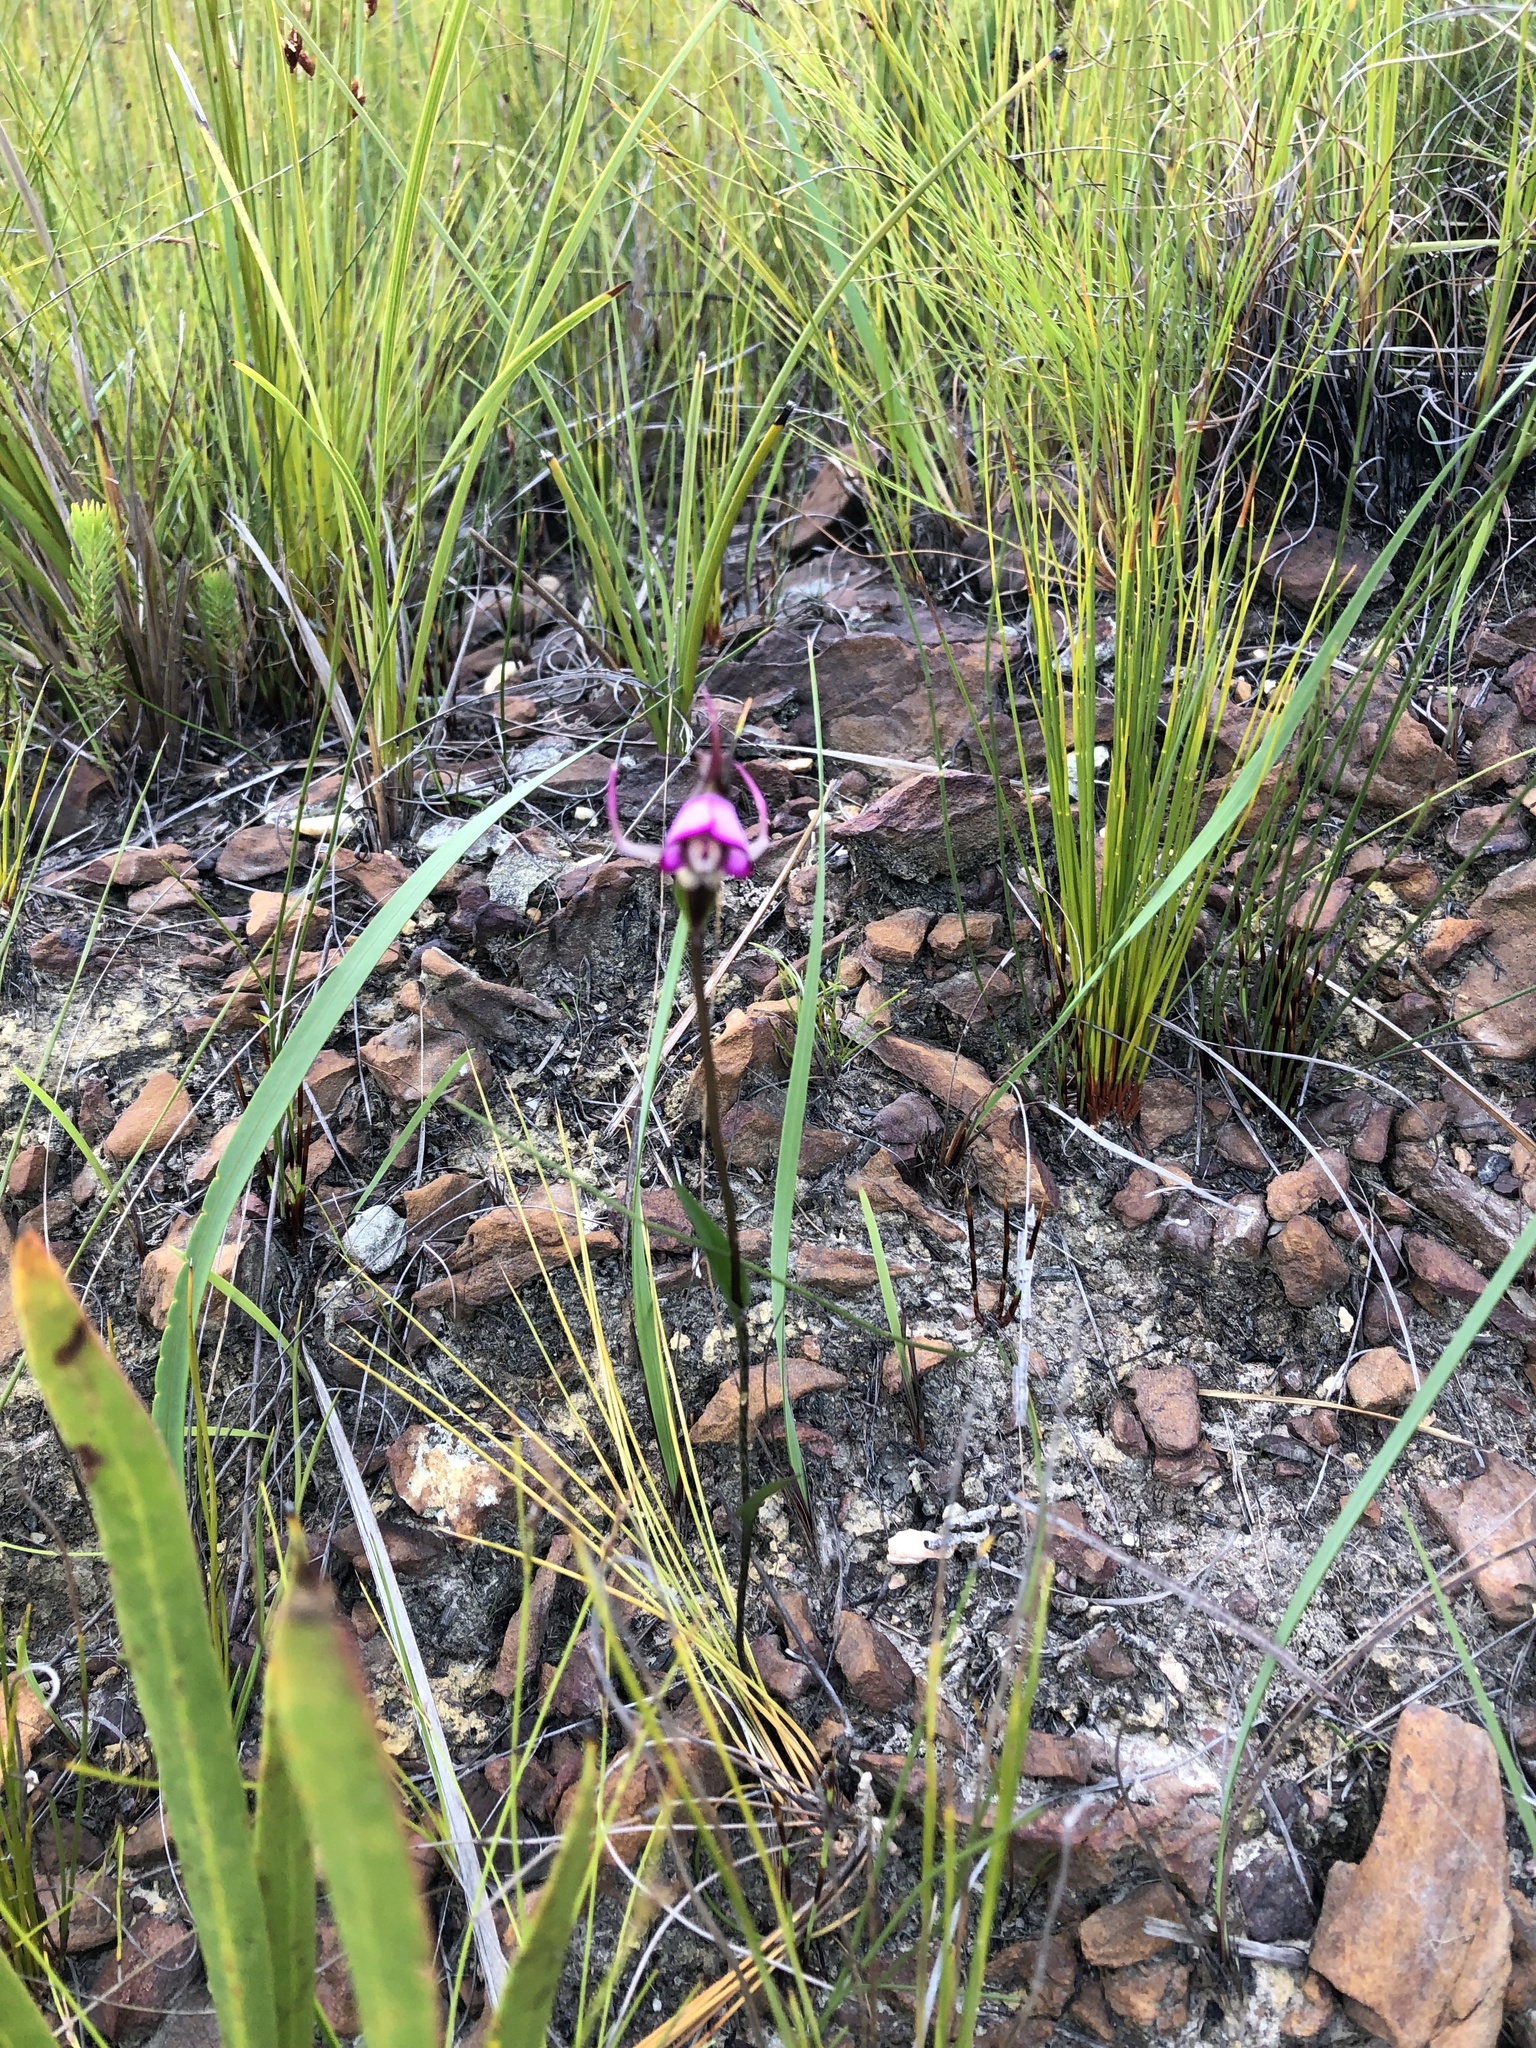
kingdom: Plantae
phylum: Tracheophyta
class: Liliopsida
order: Asparagales
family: Orchidaceae
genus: Disperis
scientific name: Disperis capensis
